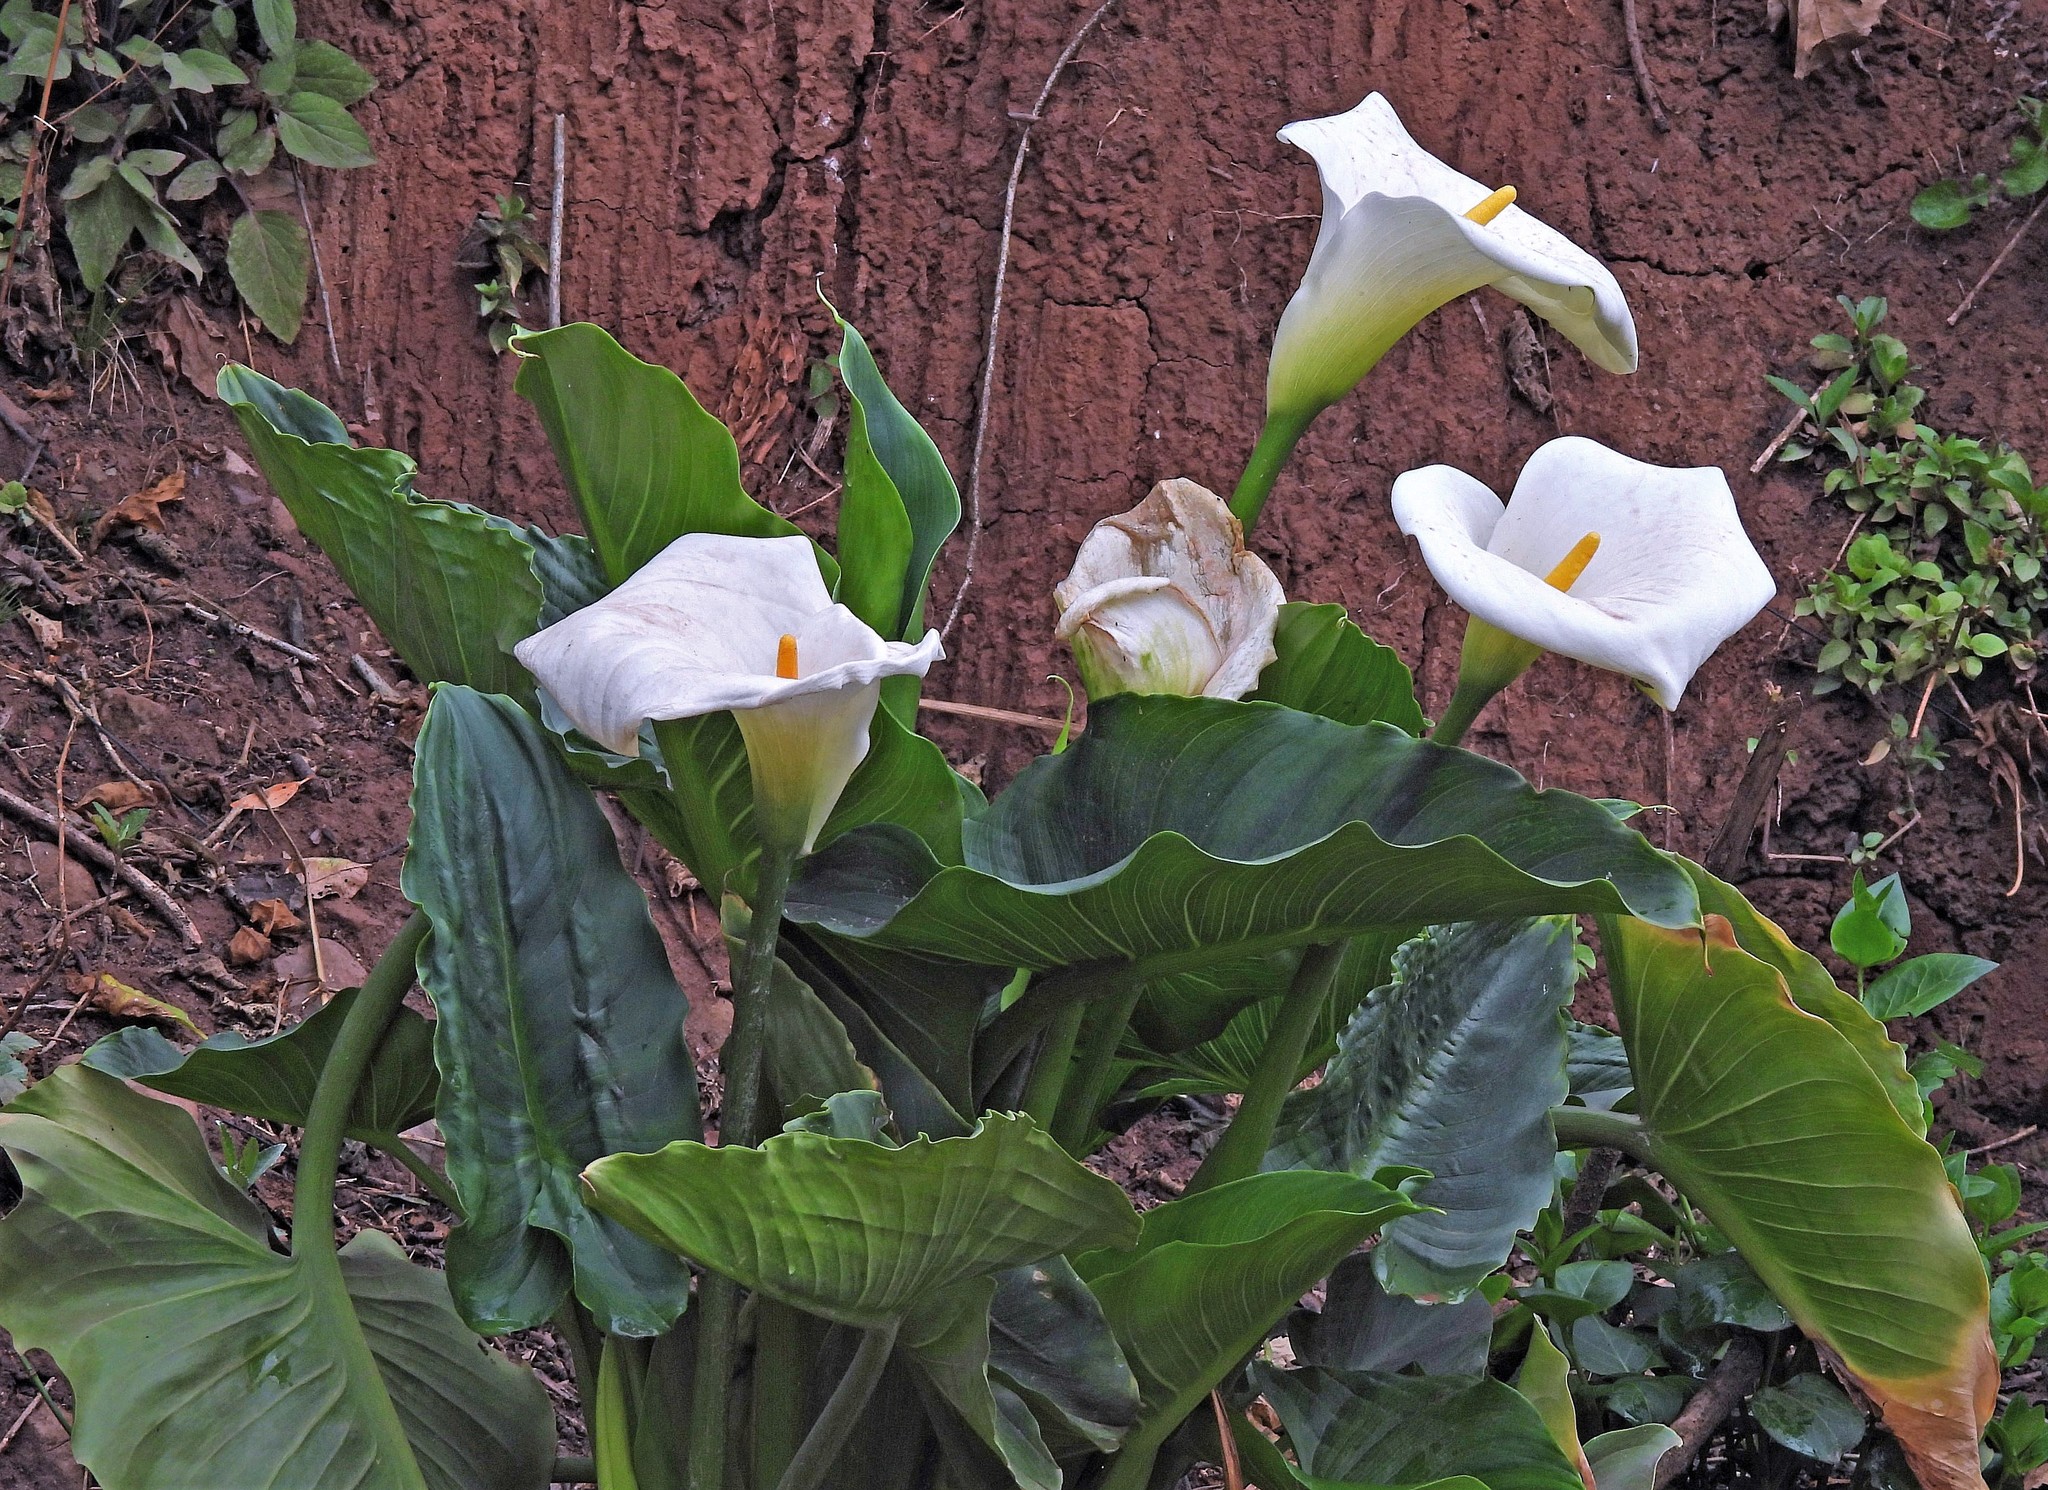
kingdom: Plantae
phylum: Tracheophyta
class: Liliopsida
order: Alismatales
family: Araceae
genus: Zantedeschia
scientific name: Zantedeschia aethiopica
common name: Altar-lily
